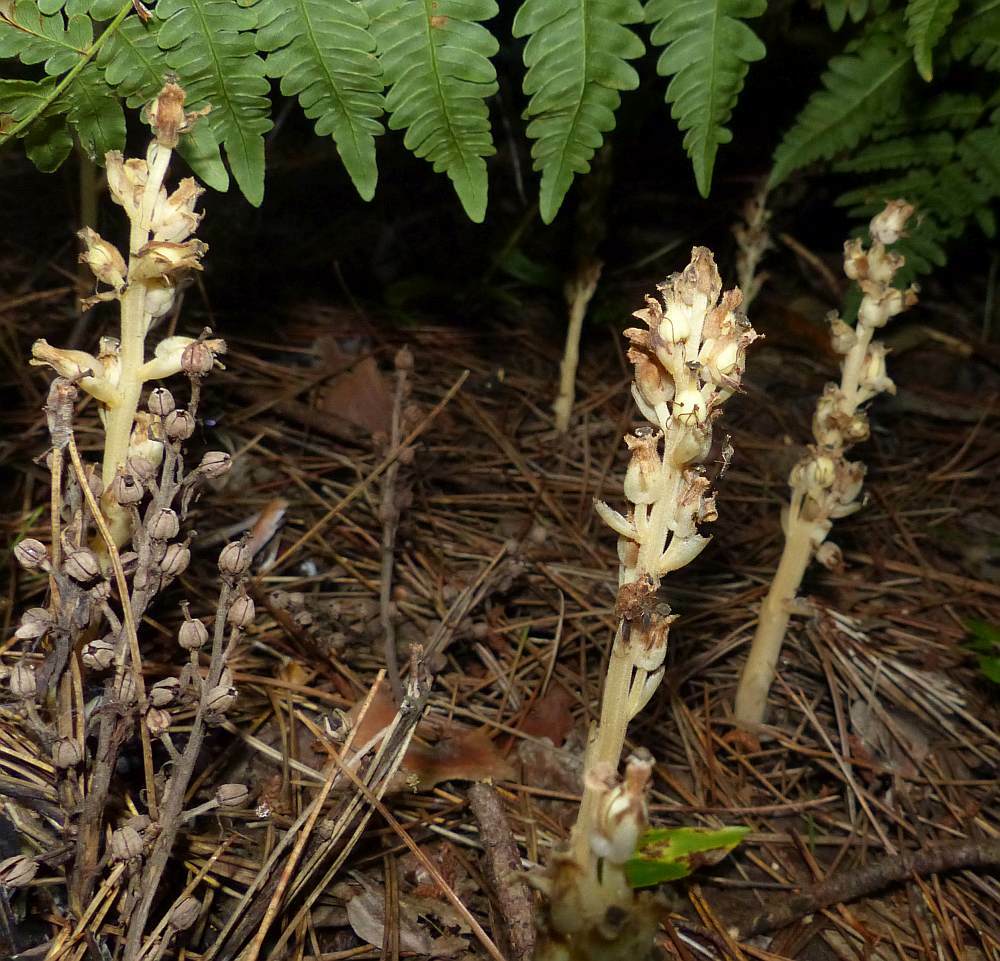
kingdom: Plantae
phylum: Tracheophyta
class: Magnoliopsida
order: Ericales
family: Ericaceae
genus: Hypopitys
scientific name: Hypopitys monotropa
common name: Yellow bird's-nest
